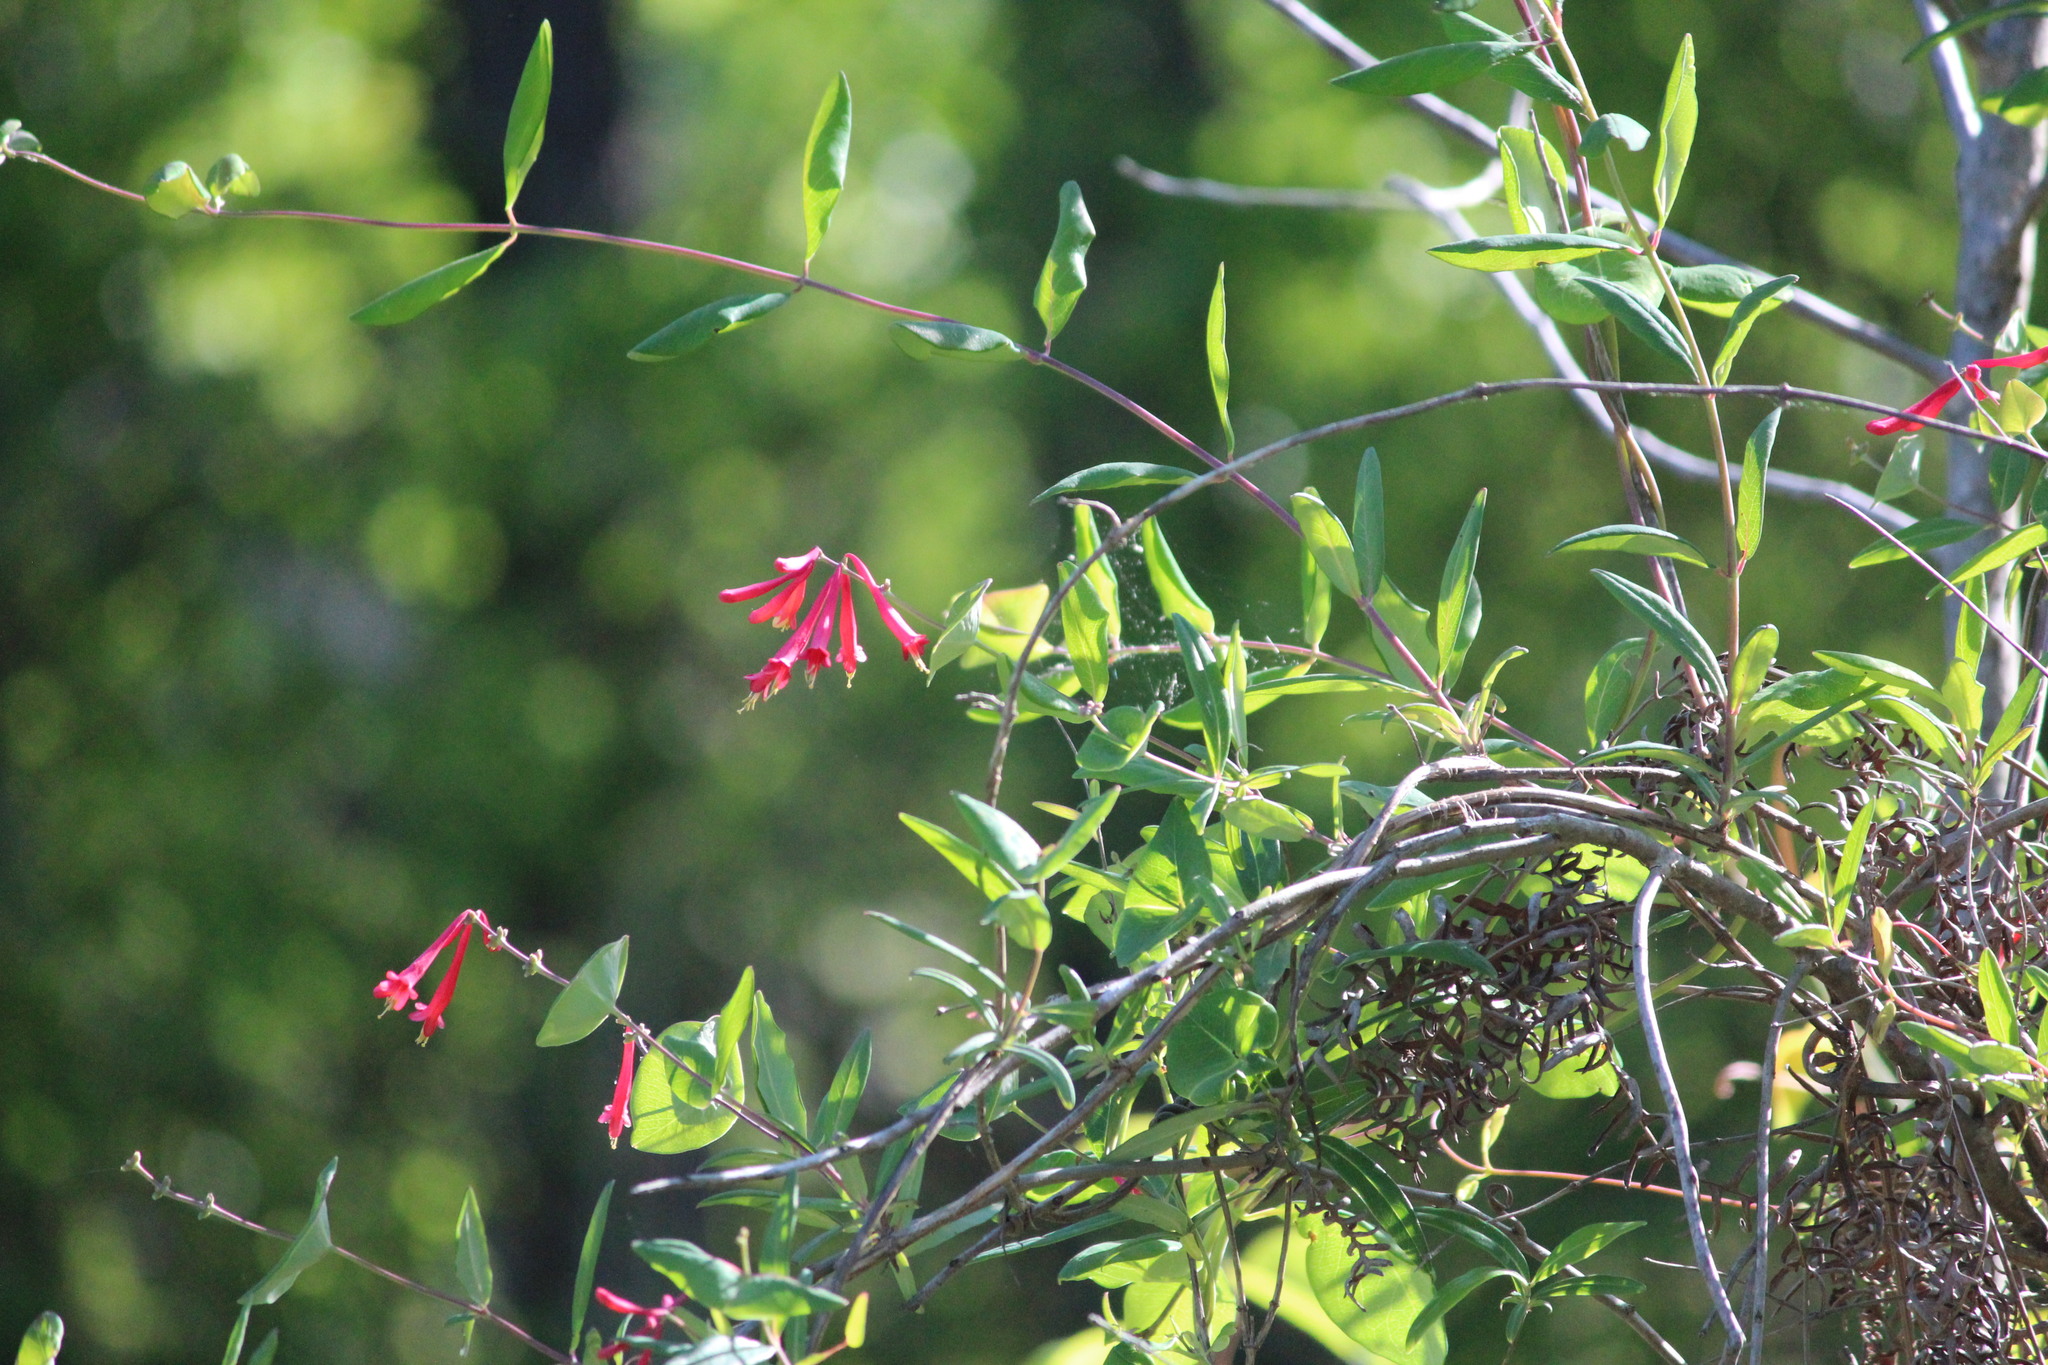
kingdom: Plantae
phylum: Tracheophyta
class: Magnoliopsida
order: Dipsacales
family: Caprifoliaceae
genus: Lonicera
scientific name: Lonicera sempervirens
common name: Coral honeysuckle
